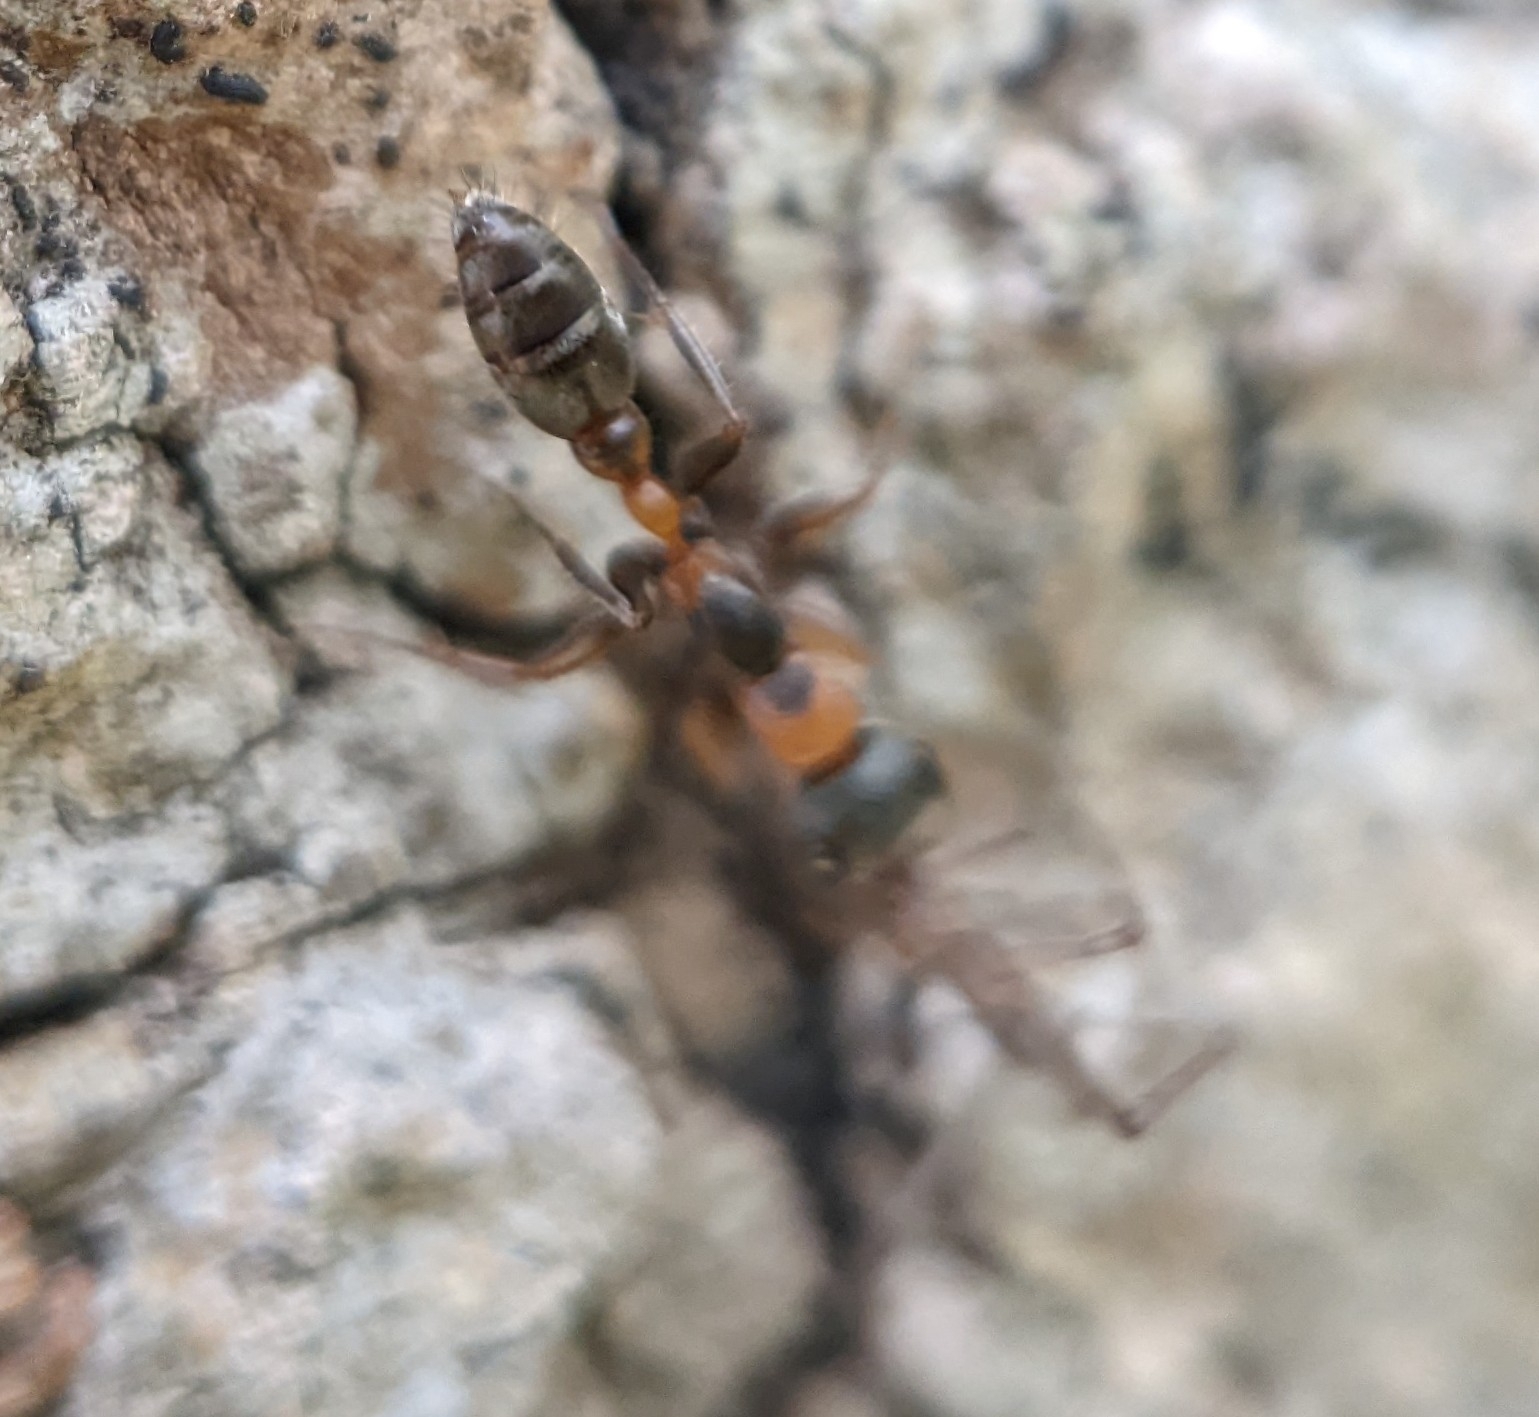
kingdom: Animalia
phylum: Arthropoda
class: Insecta
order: Hymenoptera
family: Formicidae
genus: Pseudomyrmex
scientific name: Pseudomyrmex gracilis
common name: Graceful twig ant
